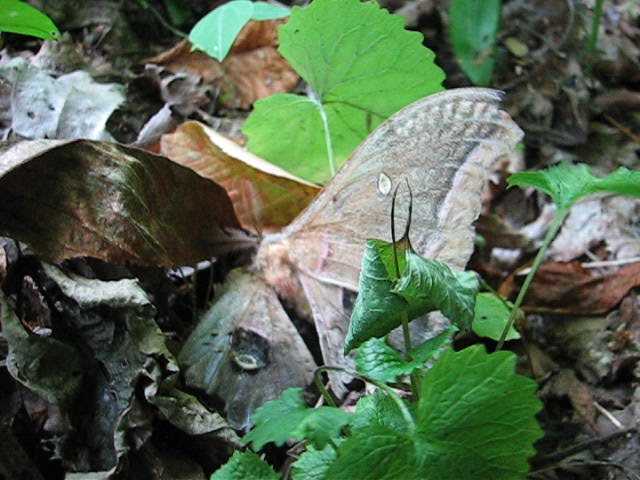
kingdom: Animalia
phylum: Arthropoda
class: Insecta
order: Lepidoptera
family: Saturniidae
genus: Antheraea
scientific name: Antheraea polyphemus
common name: Polyphemus moth
